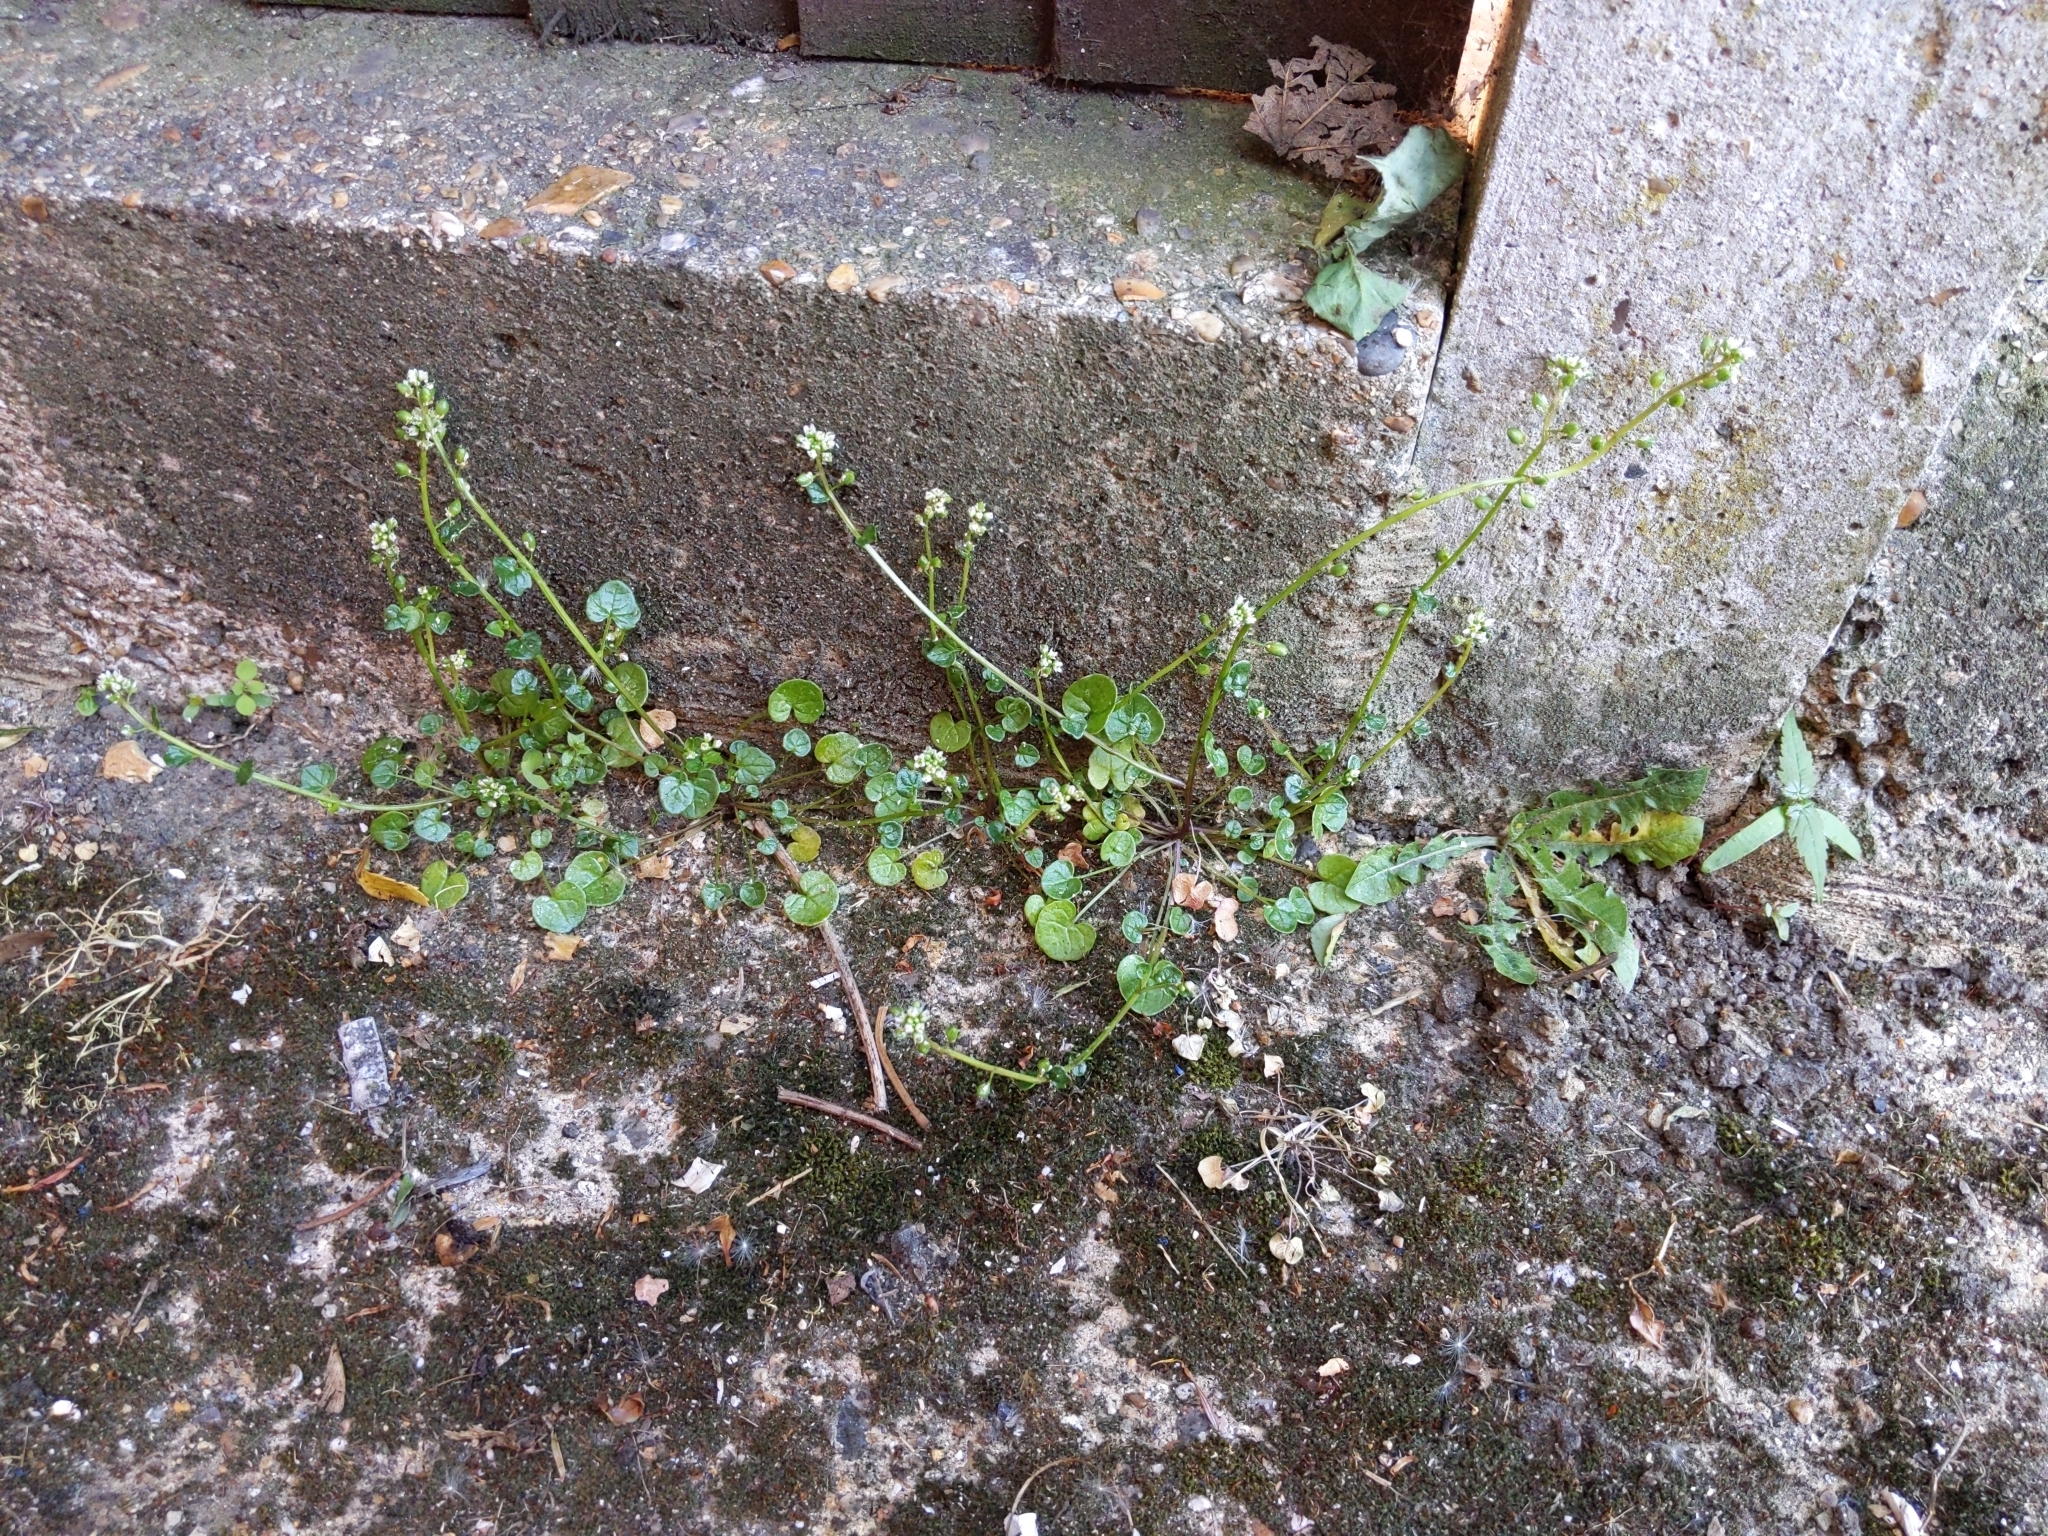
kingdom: Plantae
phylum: Tracheophyta
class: Magnoliopsida
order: Brassicales
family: Brassicaceae
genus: Cochlearia
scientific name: Cochlearia danica
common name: Early scurvygrass
